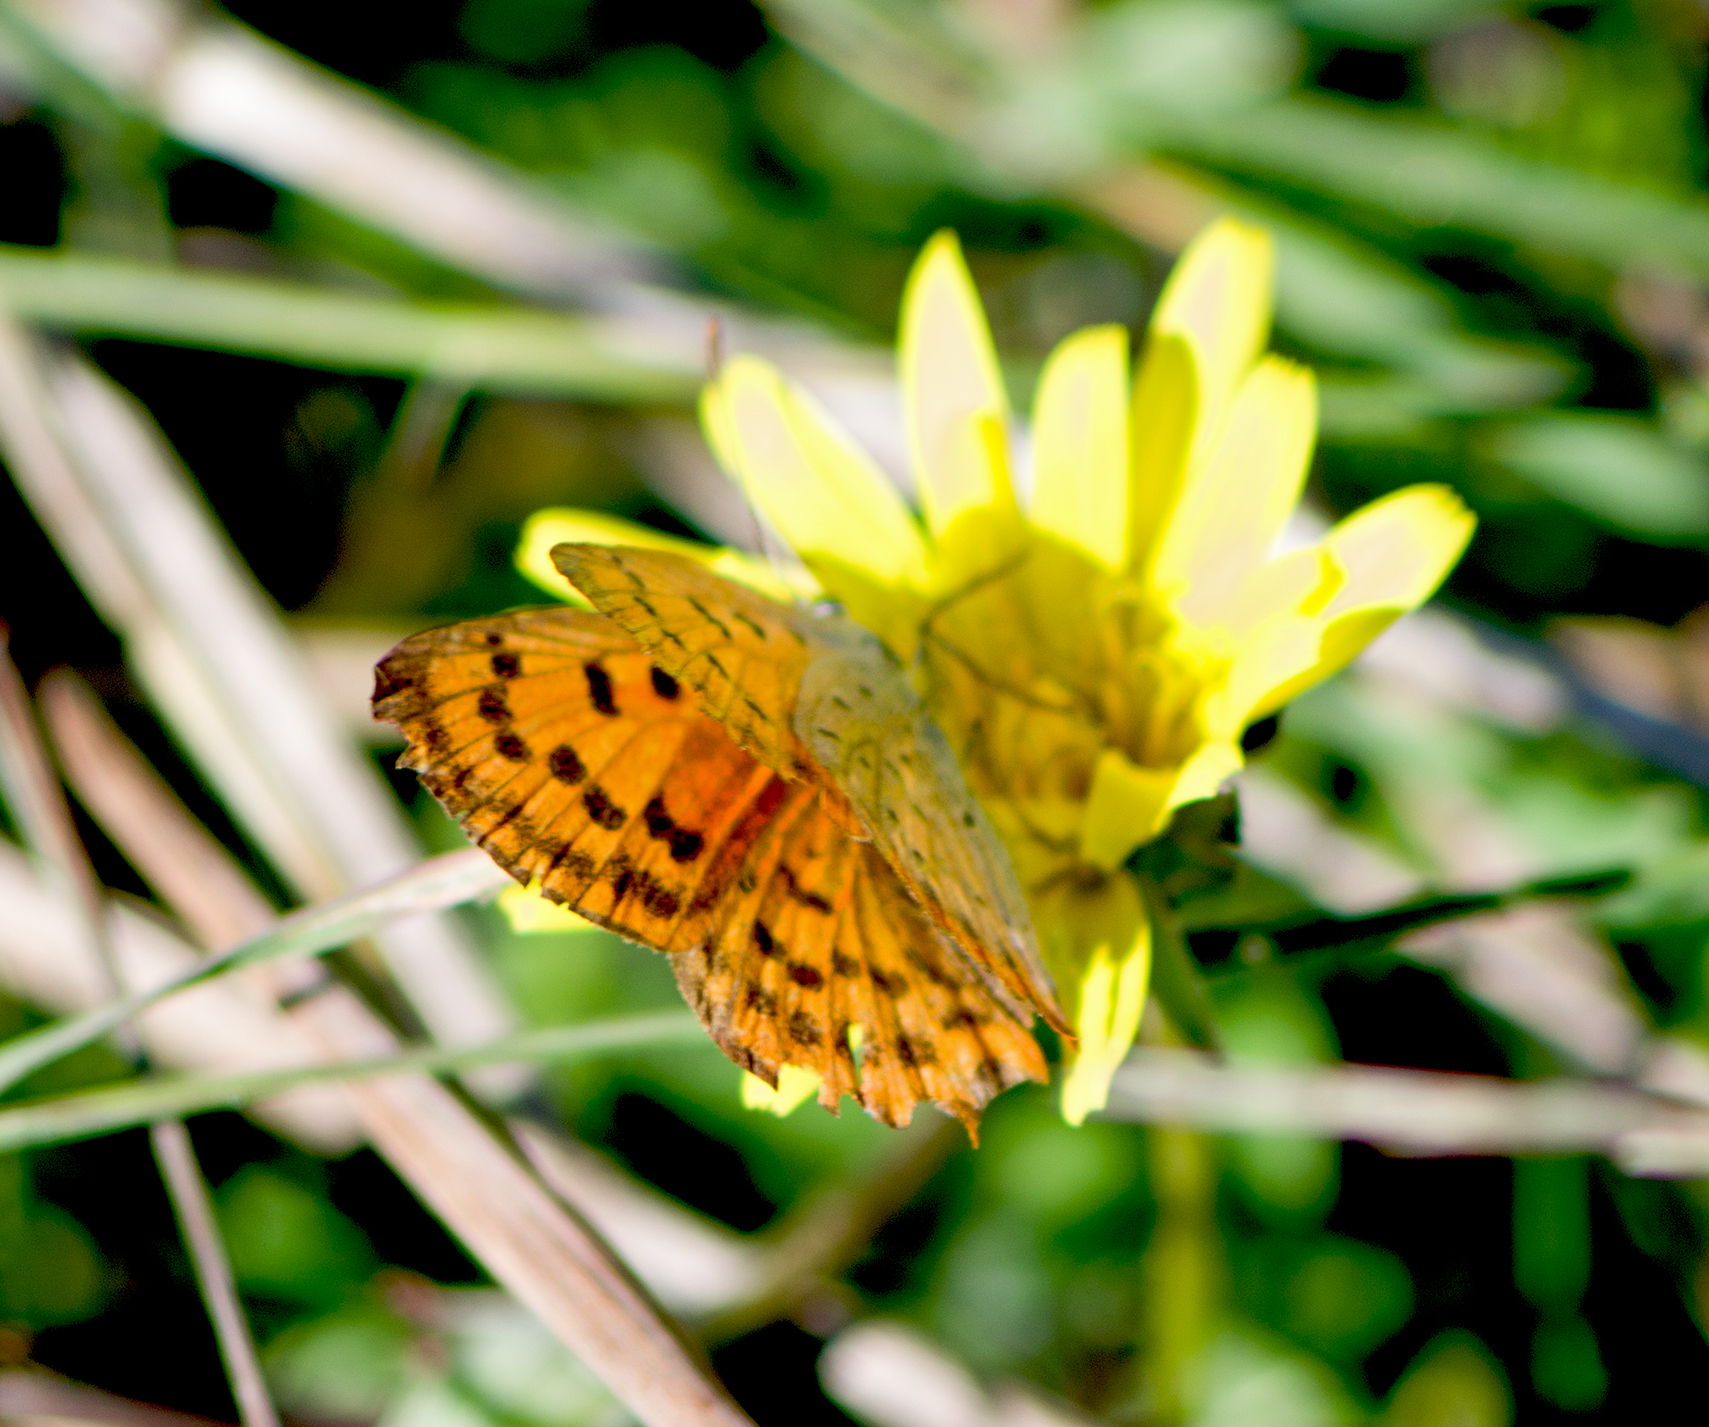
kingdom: Animalia
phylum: Arthropoda
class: Insecta
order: Lepidoptera
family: Lycaenidae
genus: Polyommatus
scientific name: Polyommatus ottomanus
